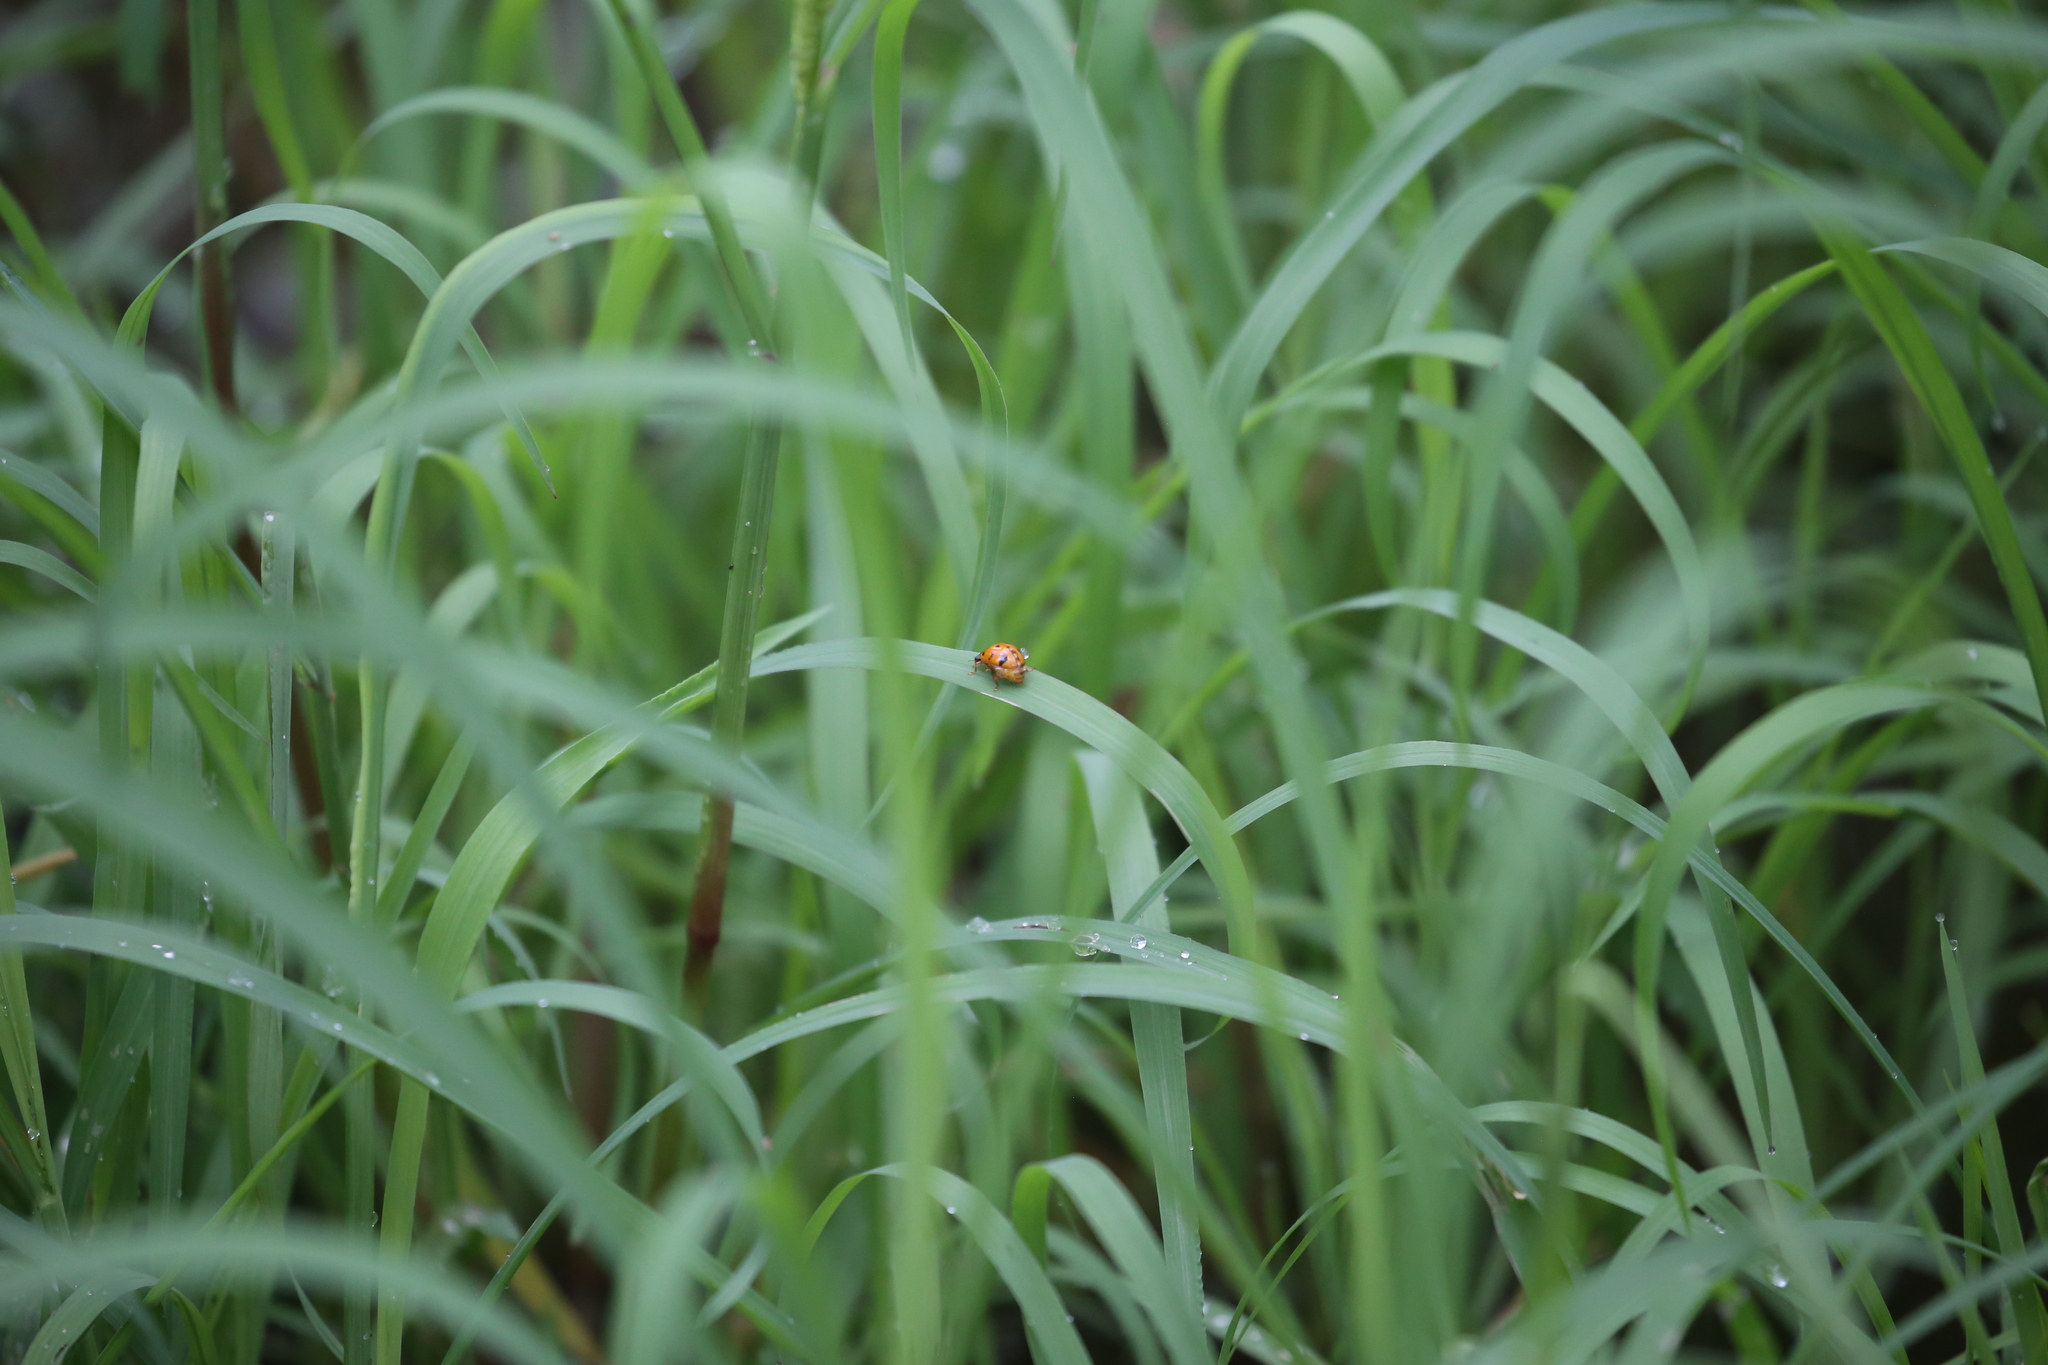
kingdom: Animalia
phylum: Arthropoda
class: Insecta
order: Coleoptera
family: Coccinellidae
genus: Harmonia
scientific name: Harmonia octomaculata
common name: Lady beetle
